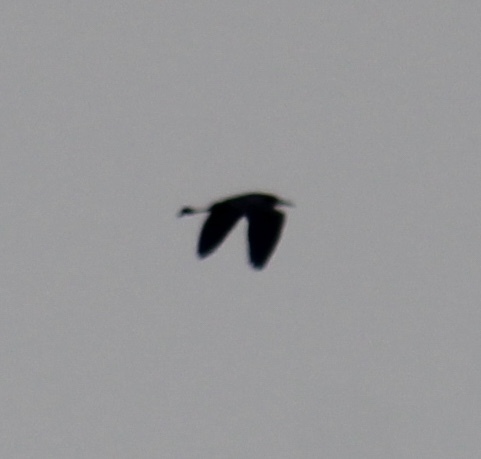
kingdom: Animalia
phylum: Chordata
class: Aves
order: Pelecaniformes
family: Ardeidae
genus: Egretta
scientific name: Egretta caerulea
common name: Little blue heron
